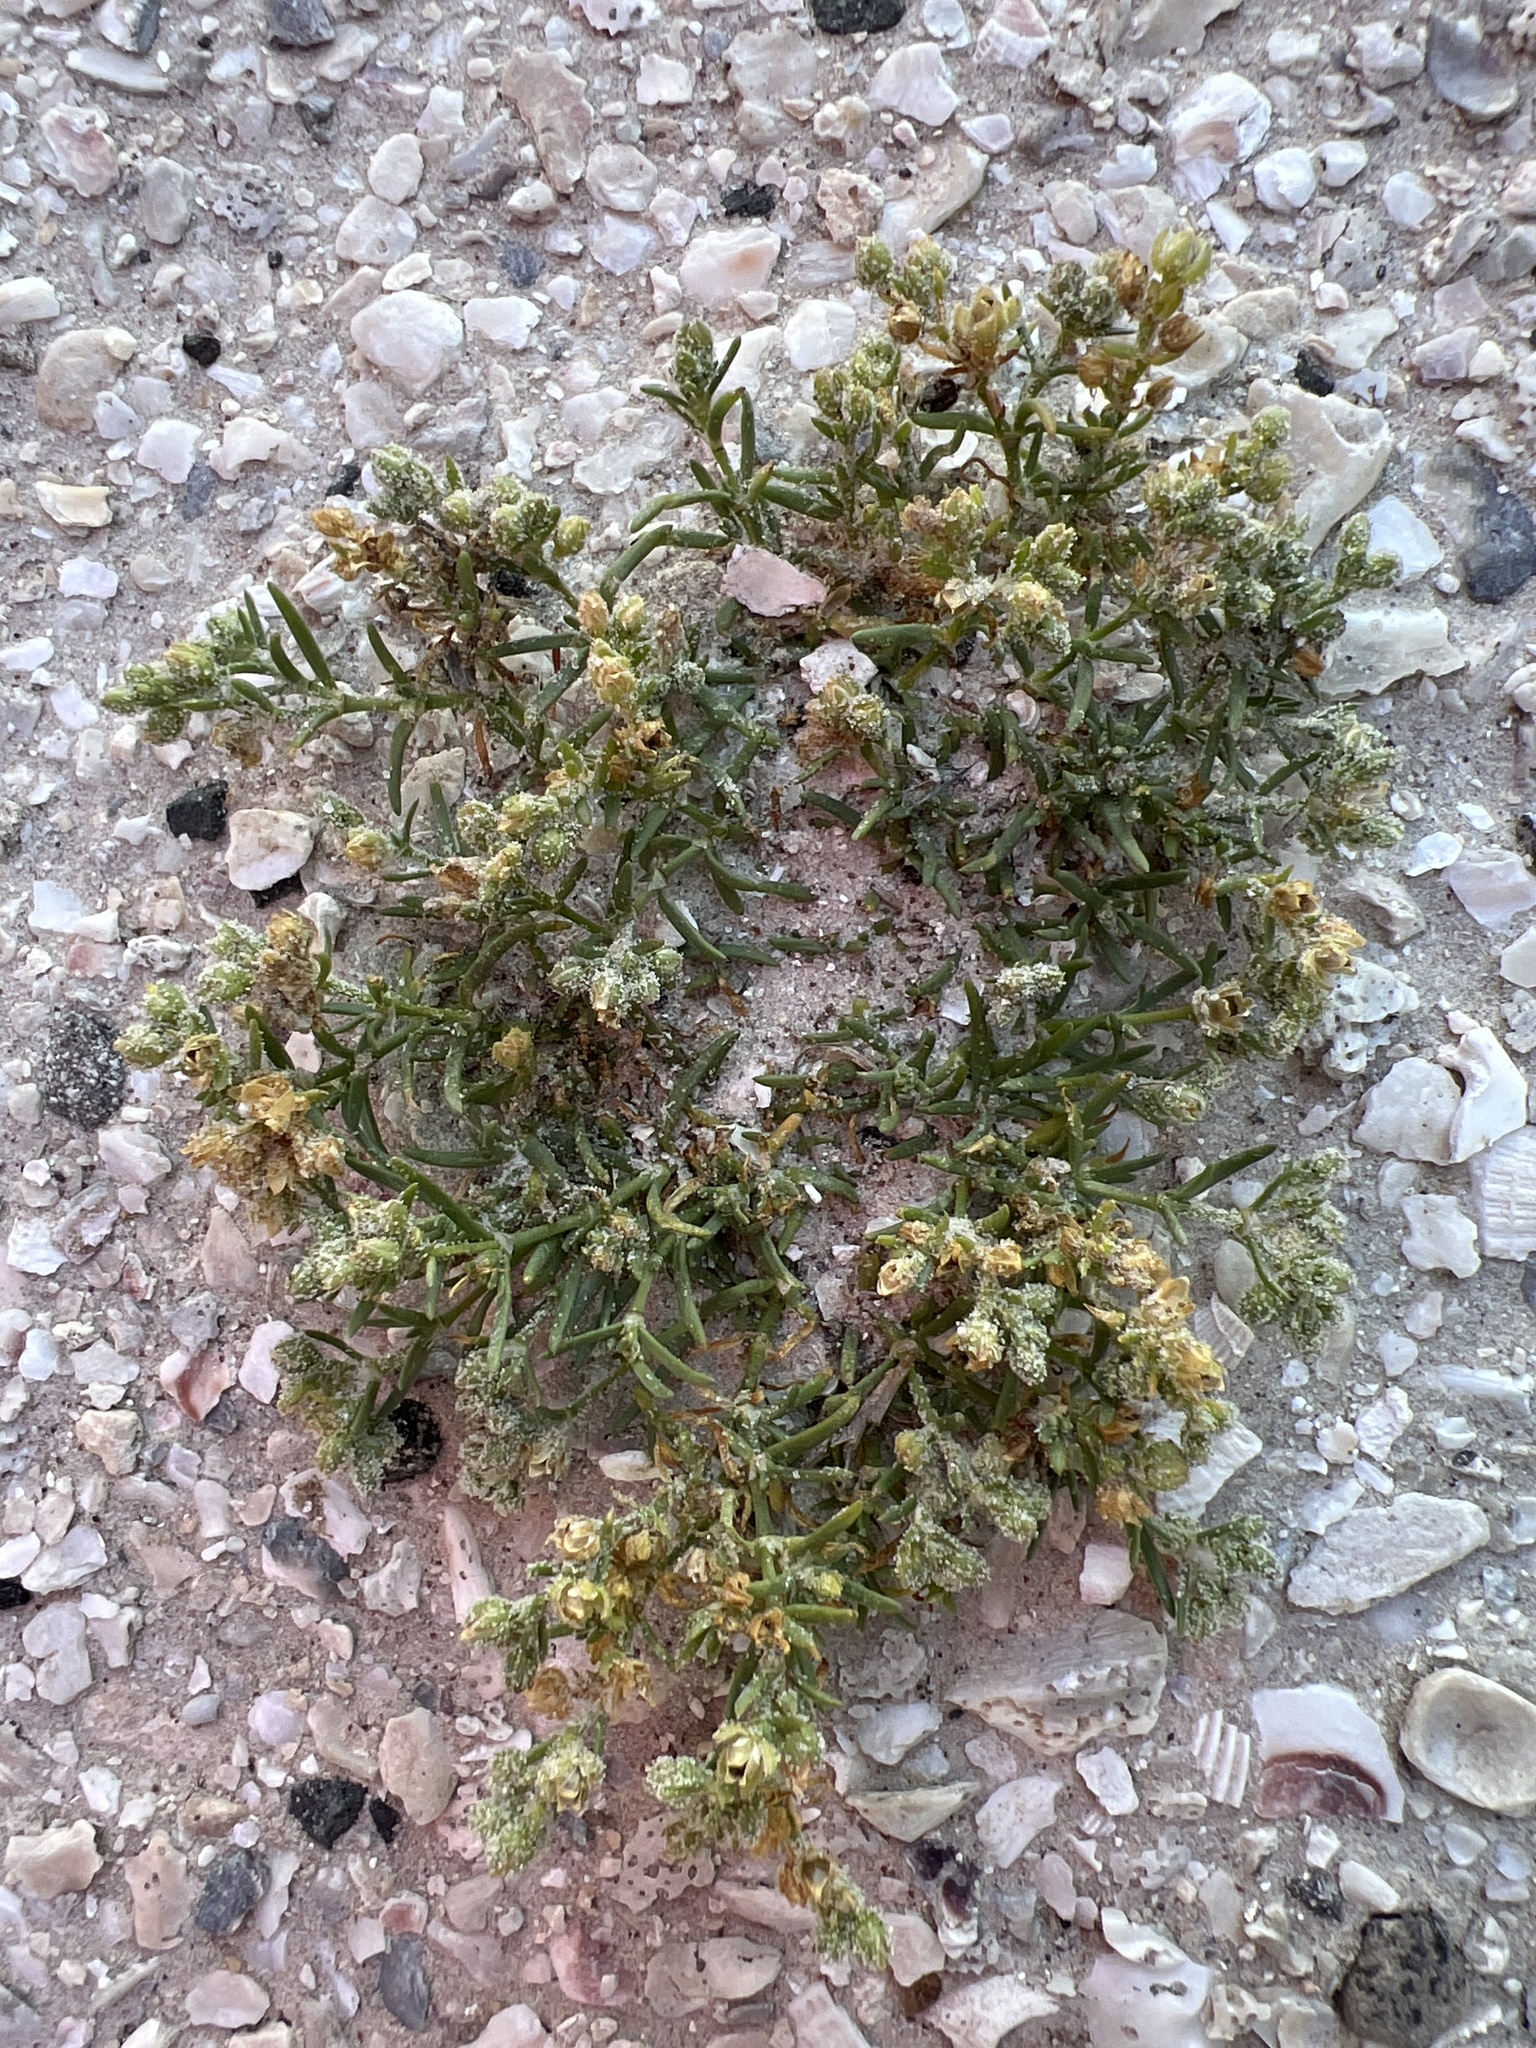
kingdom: Plantae
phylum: Tracheophyta
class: Magnoliopsida
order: Caryophyllales
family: Caryophyllaceae
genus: Spergularia
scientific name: Spergularia marina
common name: Lesser sea-spurrey
